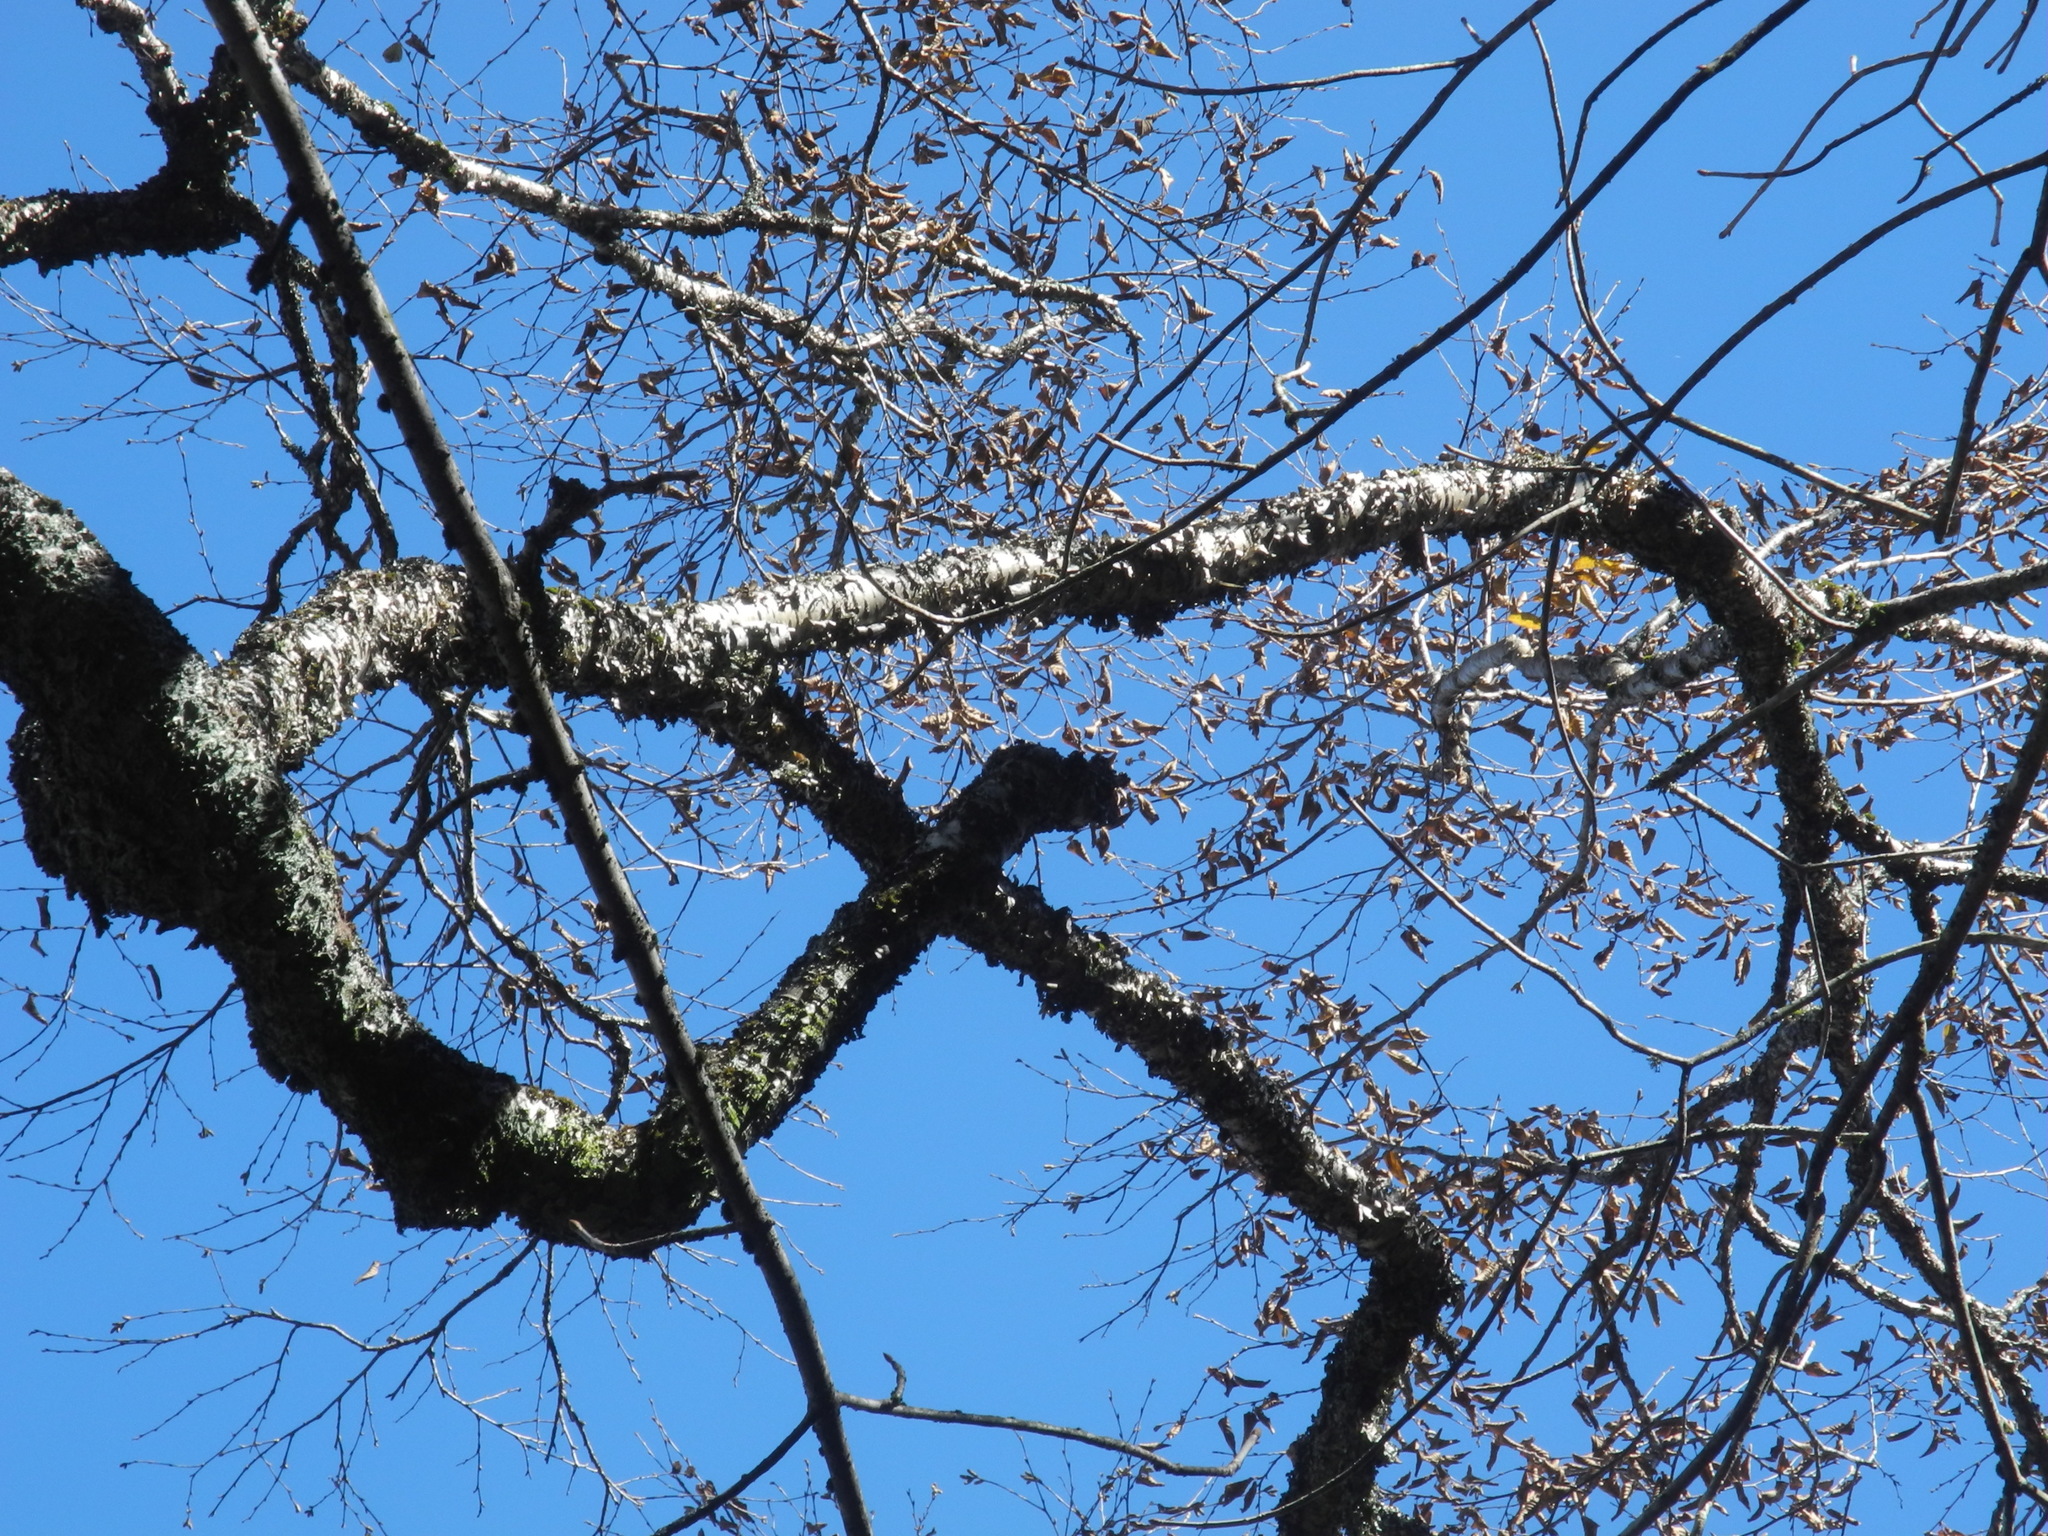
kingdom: Plantae
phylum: Tracheophyta
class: Magnoliopsida
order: Fagales
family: Betulaceae
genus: Betula
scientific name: Betula lenta
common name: Black birch
